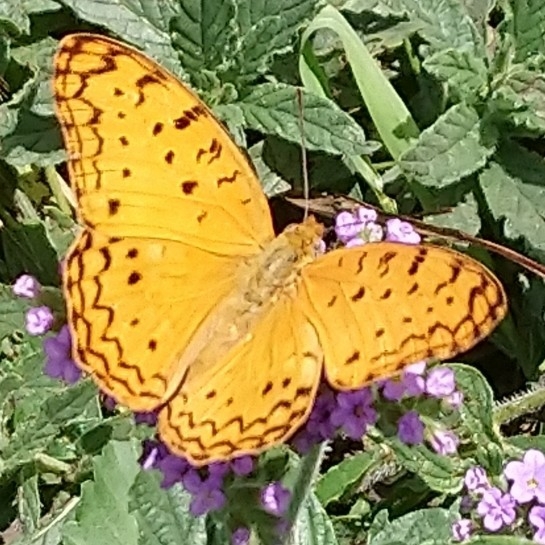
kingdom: Animalia
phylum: Arthropoda
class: Insecta
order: Lepidoptera
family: Nymphalidae
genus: Phalanta
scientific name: Phalanta phalantha
